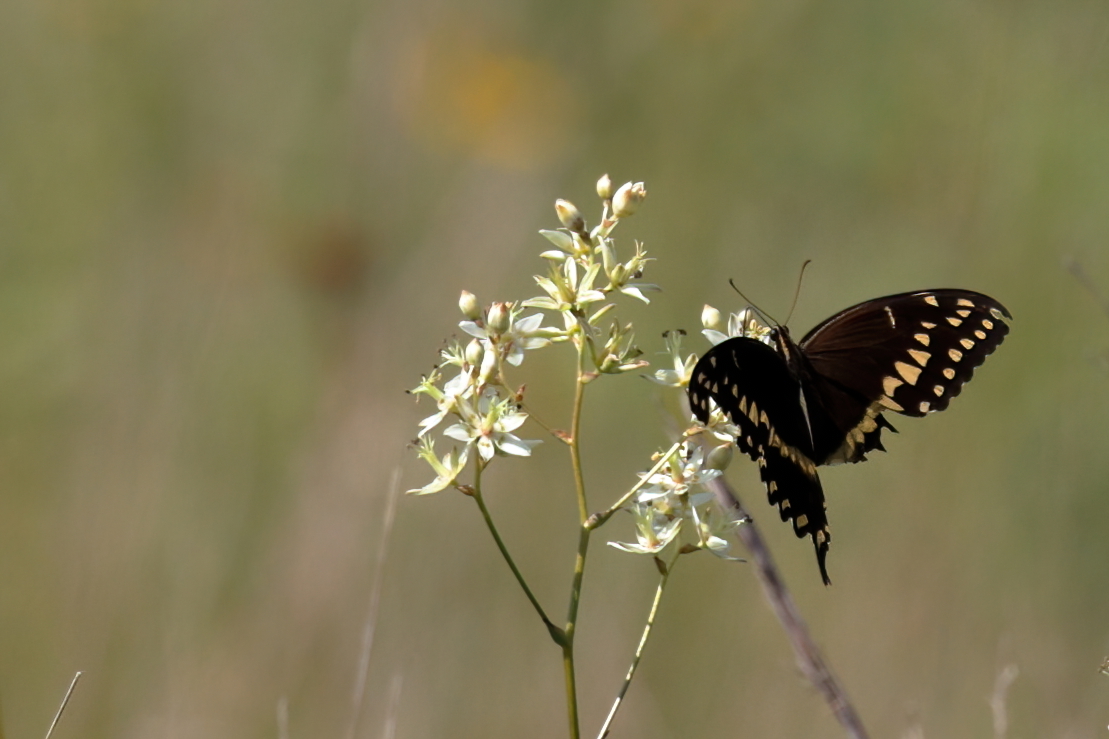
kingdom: Animalia
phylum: Arthropoda
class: Insecta
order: Lepidoptera
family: Papilionidae
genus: Papilio
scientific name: Papilio palamedes
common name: Palamedes swallowtail
